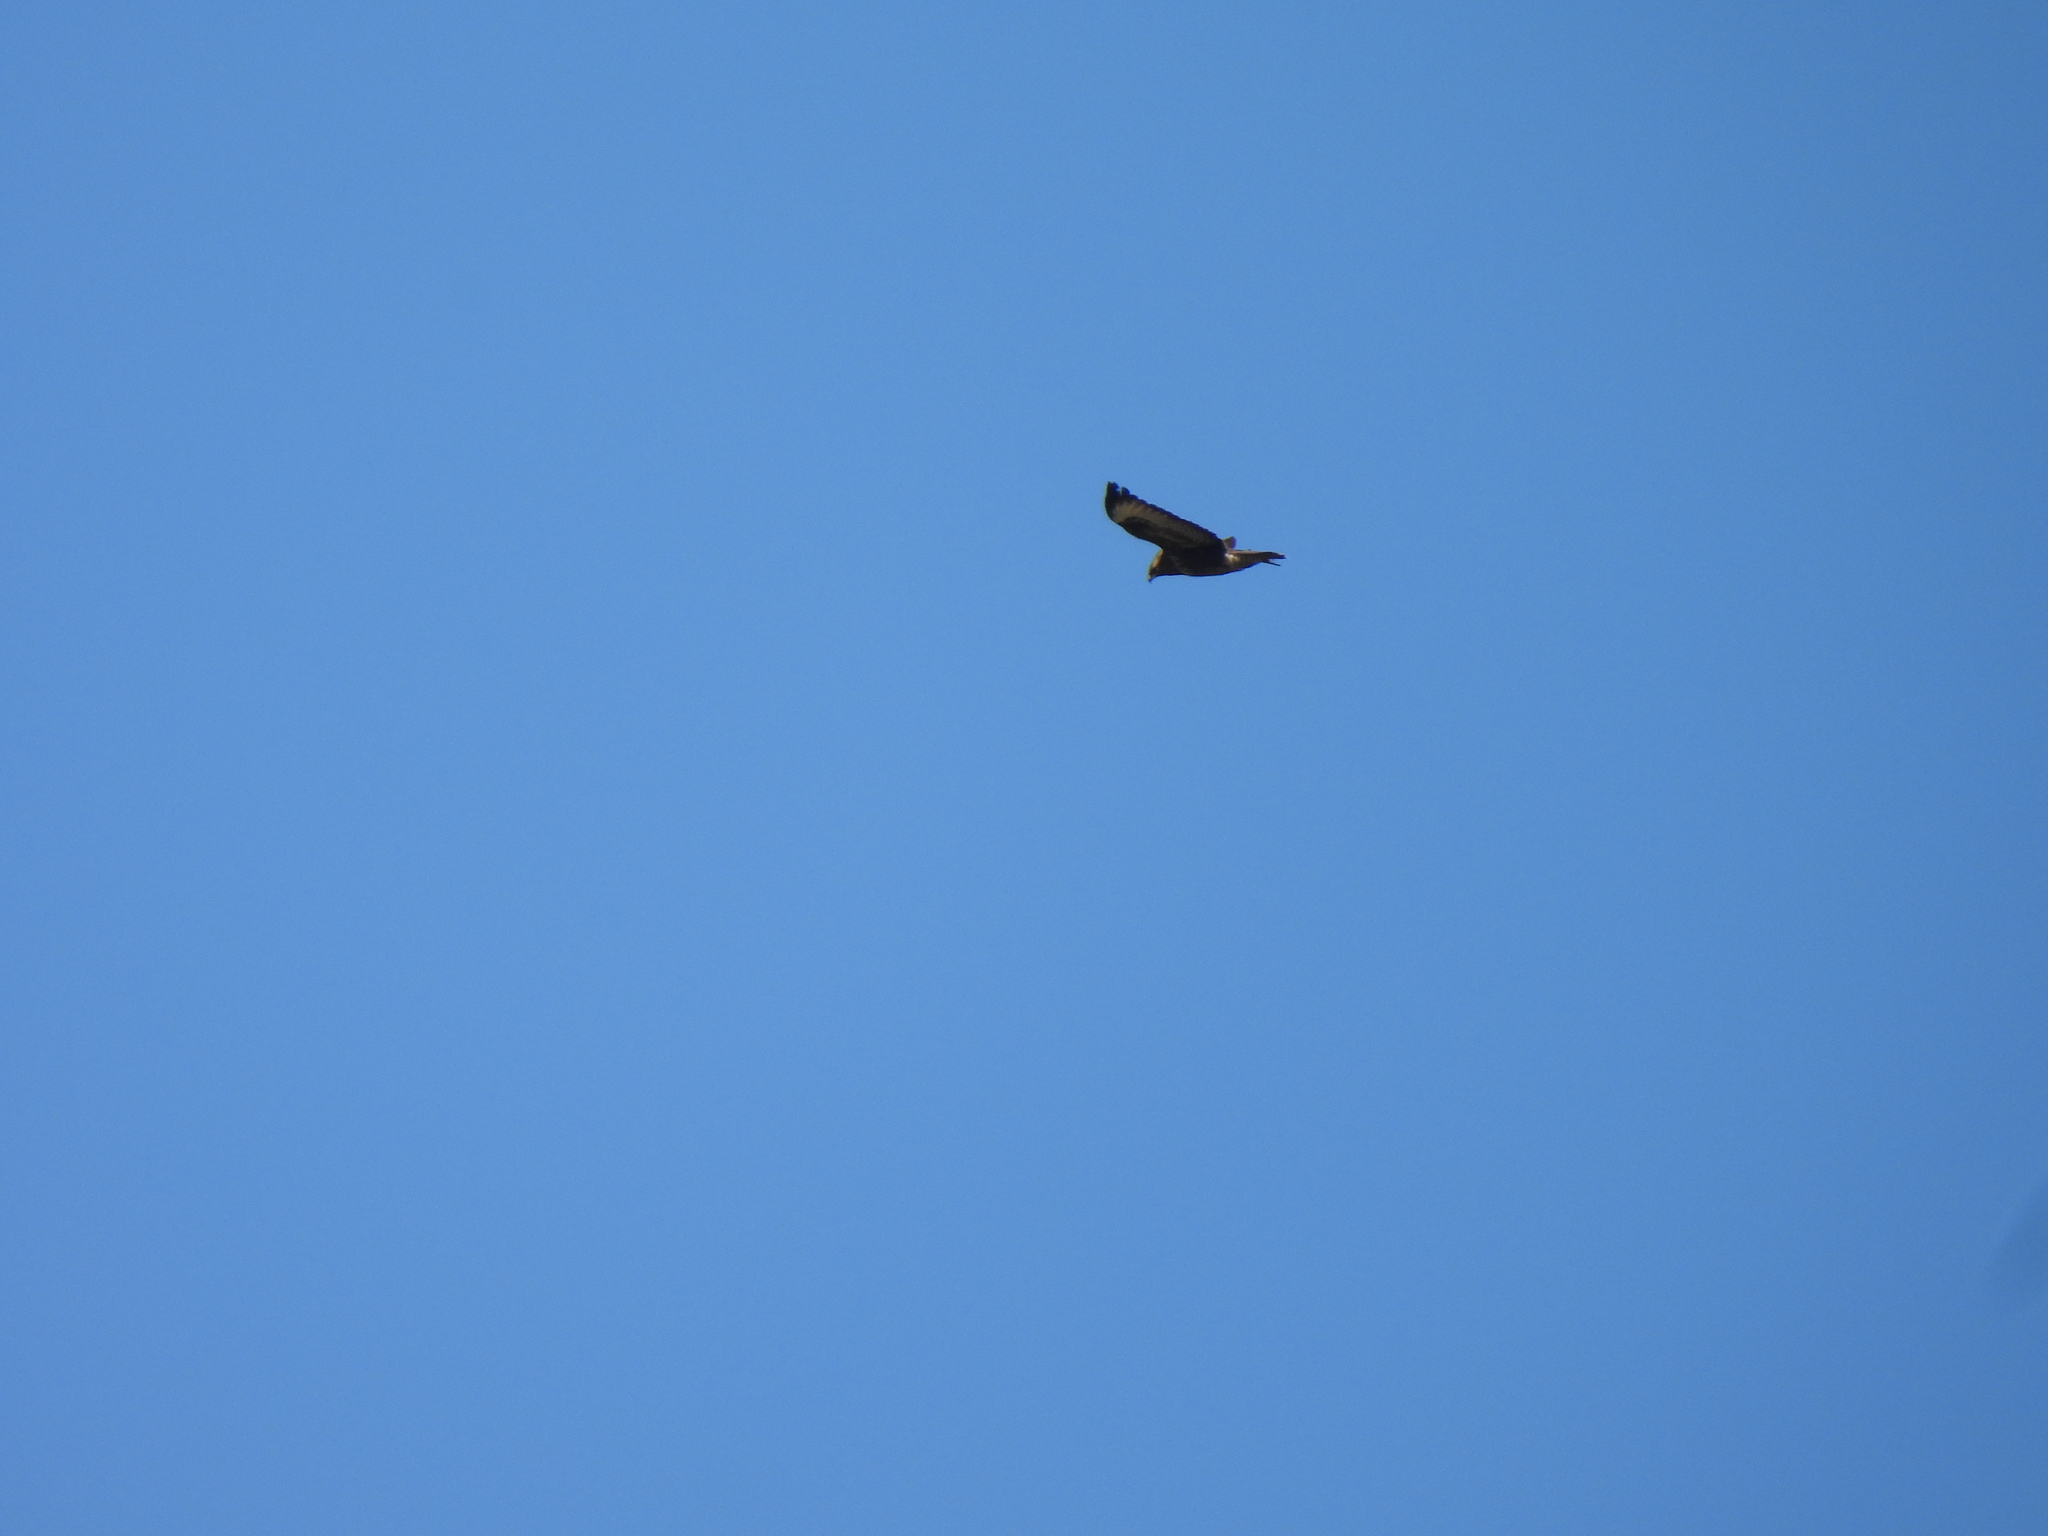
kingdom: Animalia
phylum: Chordata
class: Aves
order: Accipitriformes
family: Accipitridae
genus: Buteo
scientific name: Buteo buteo
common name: Common buzzard
